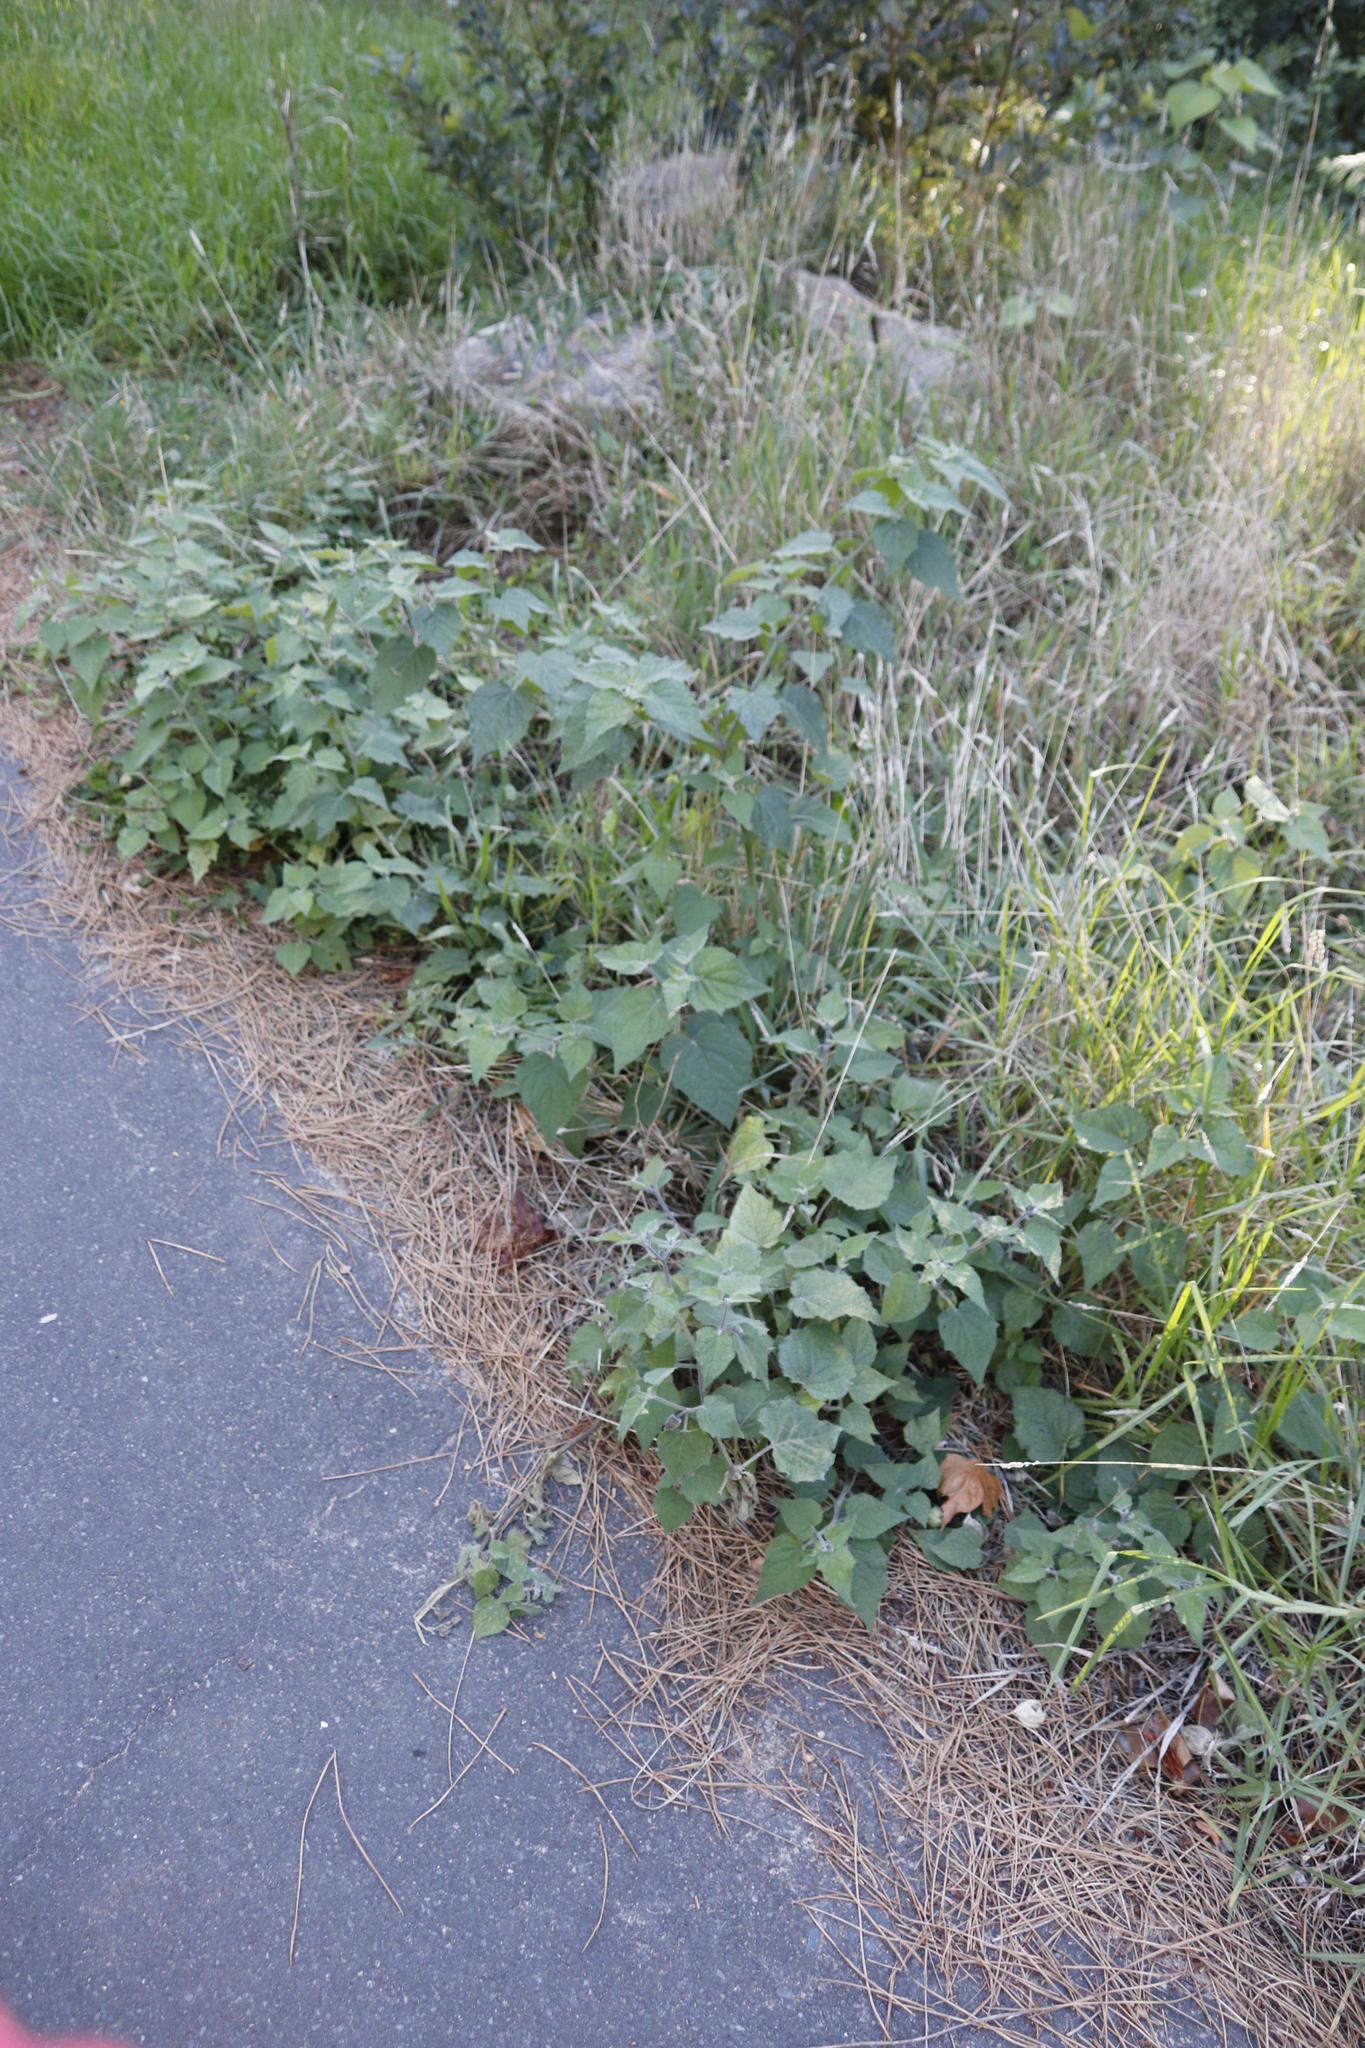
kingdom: Plantae
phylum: Tracheophyta
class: Magnoliopsida
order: Solanales
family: Solanaceae
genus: Physalis
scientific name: Physalis peruviana
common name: Cape-gooseberry
